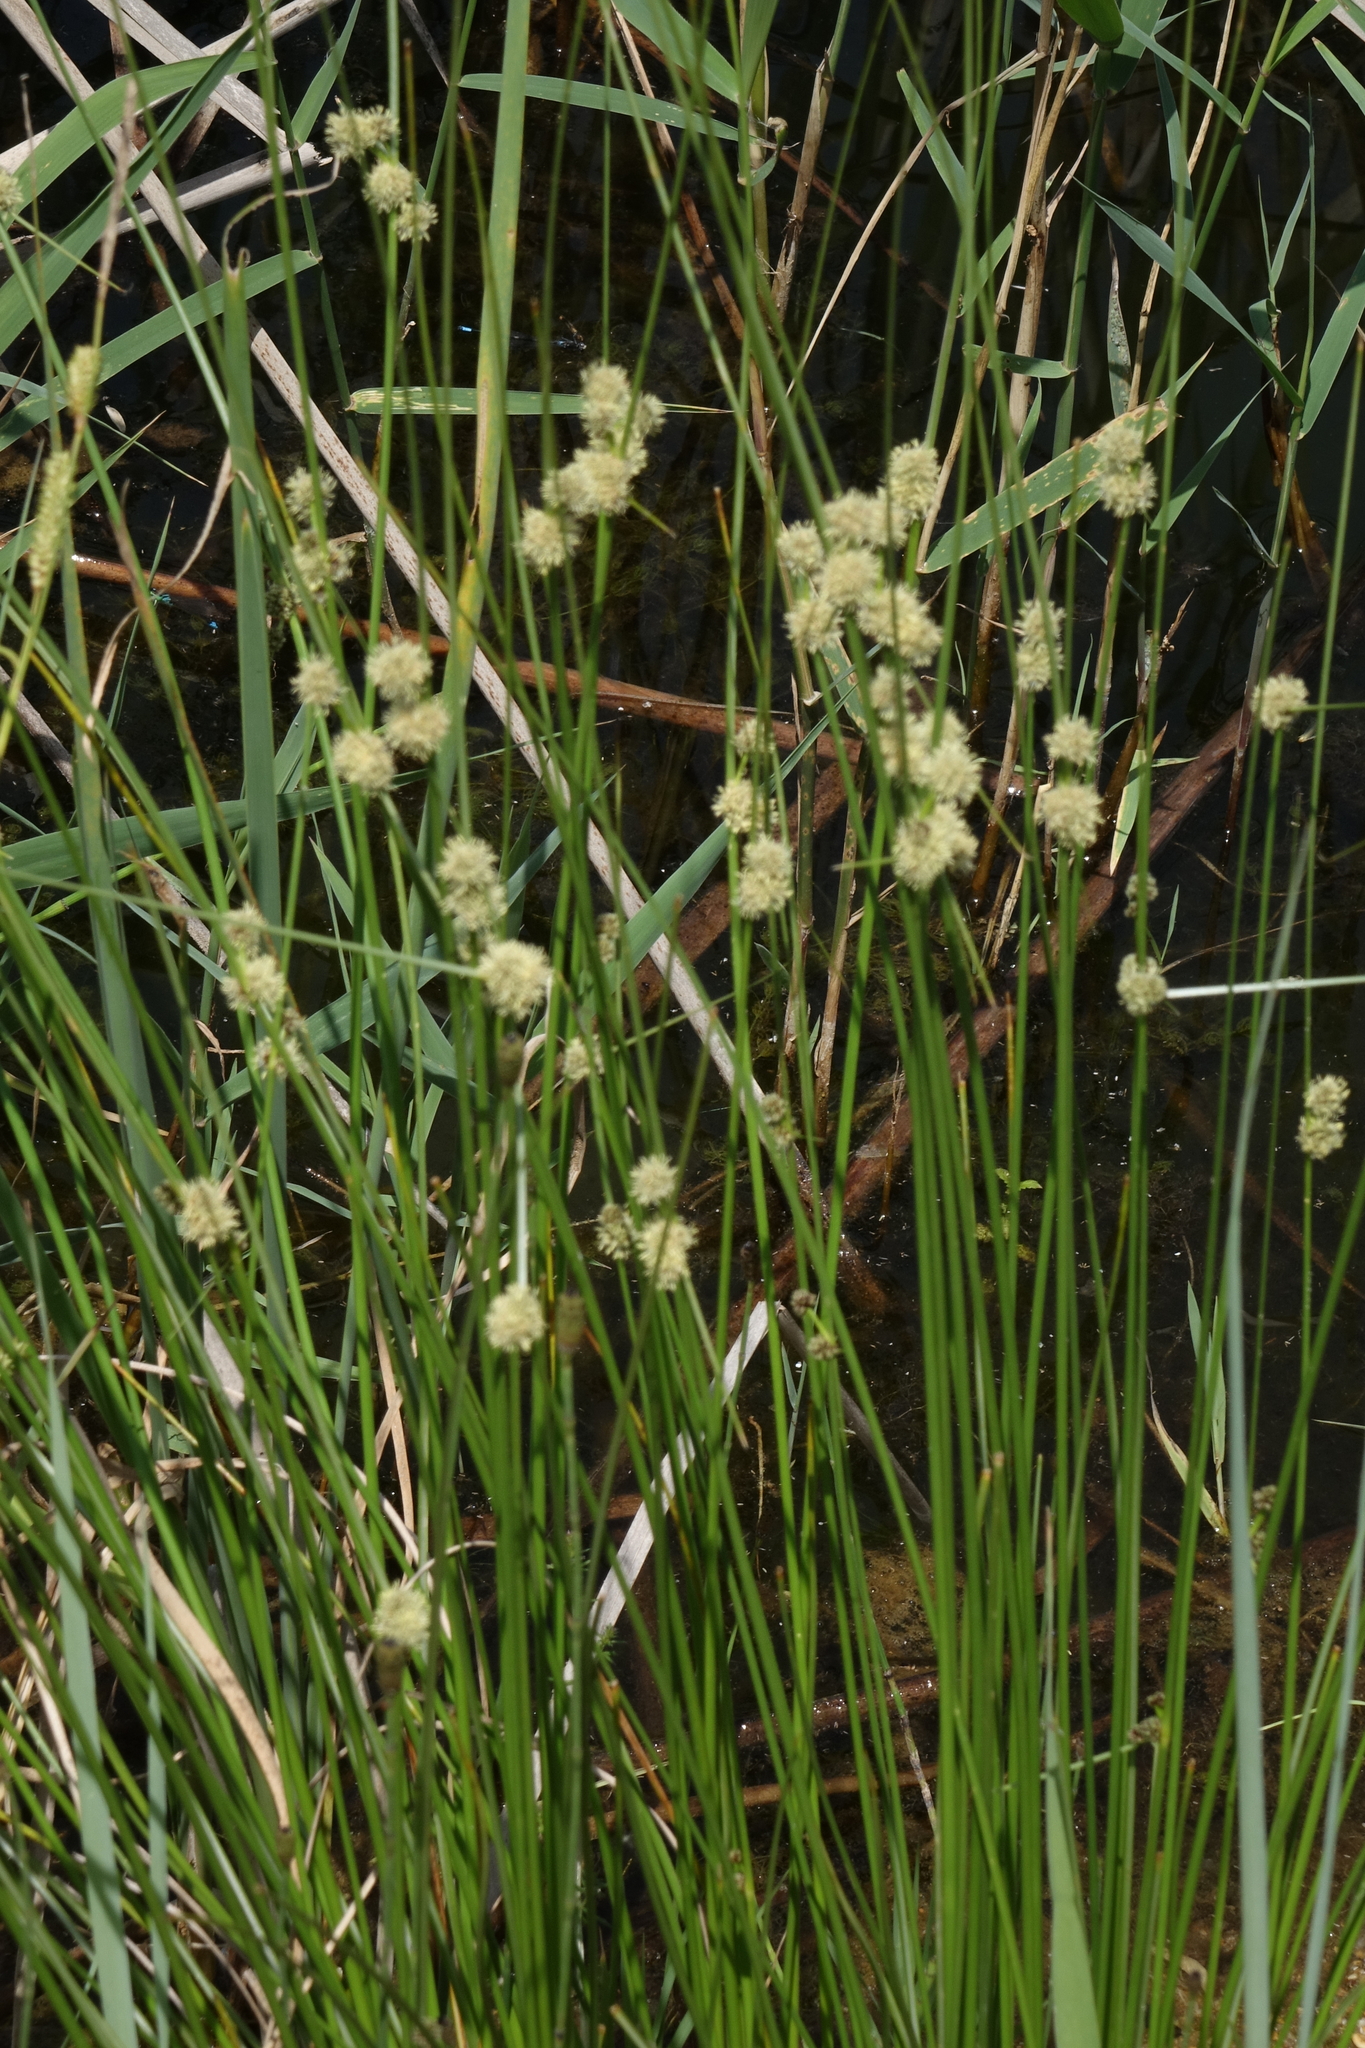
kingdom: Plantae
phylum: Tracheophyta
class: Liliopsida
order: Poales
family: Cyperaceae
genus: Scirpoides
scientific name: Scirpoides holoschoenus
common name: Round-headed club-rush
